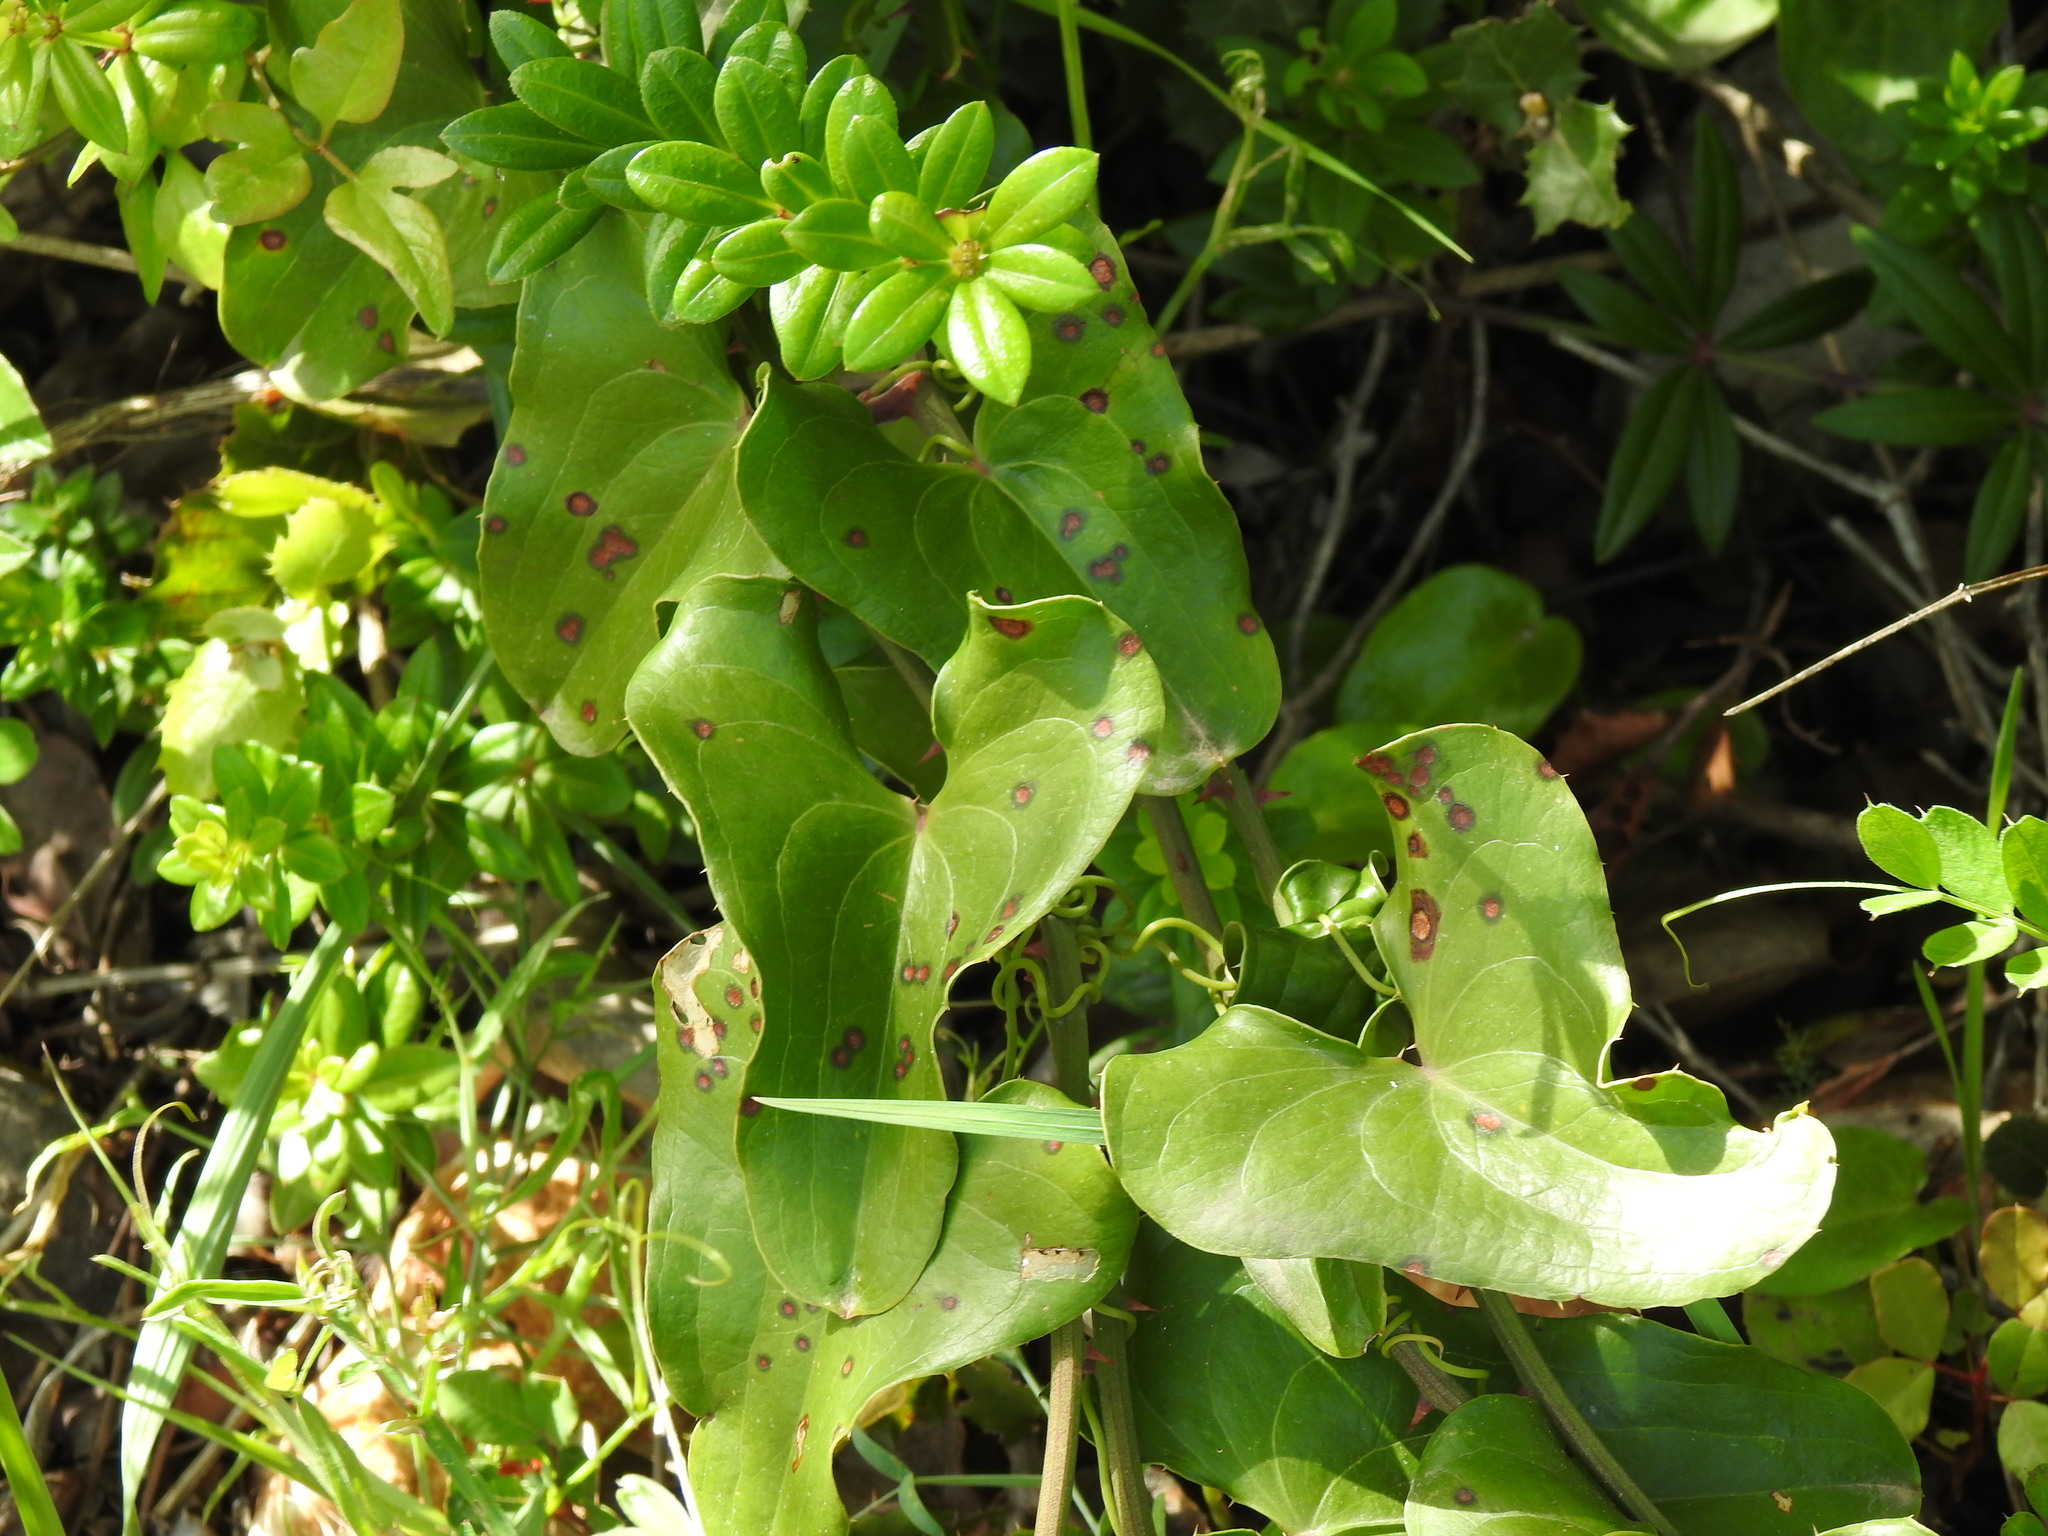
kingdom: Plantae
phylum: Tracheophyta
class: Liliopsida
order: Liliales
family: Smilacaceae
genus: Smilax
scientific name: Smilax aspera
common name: Common smilax
